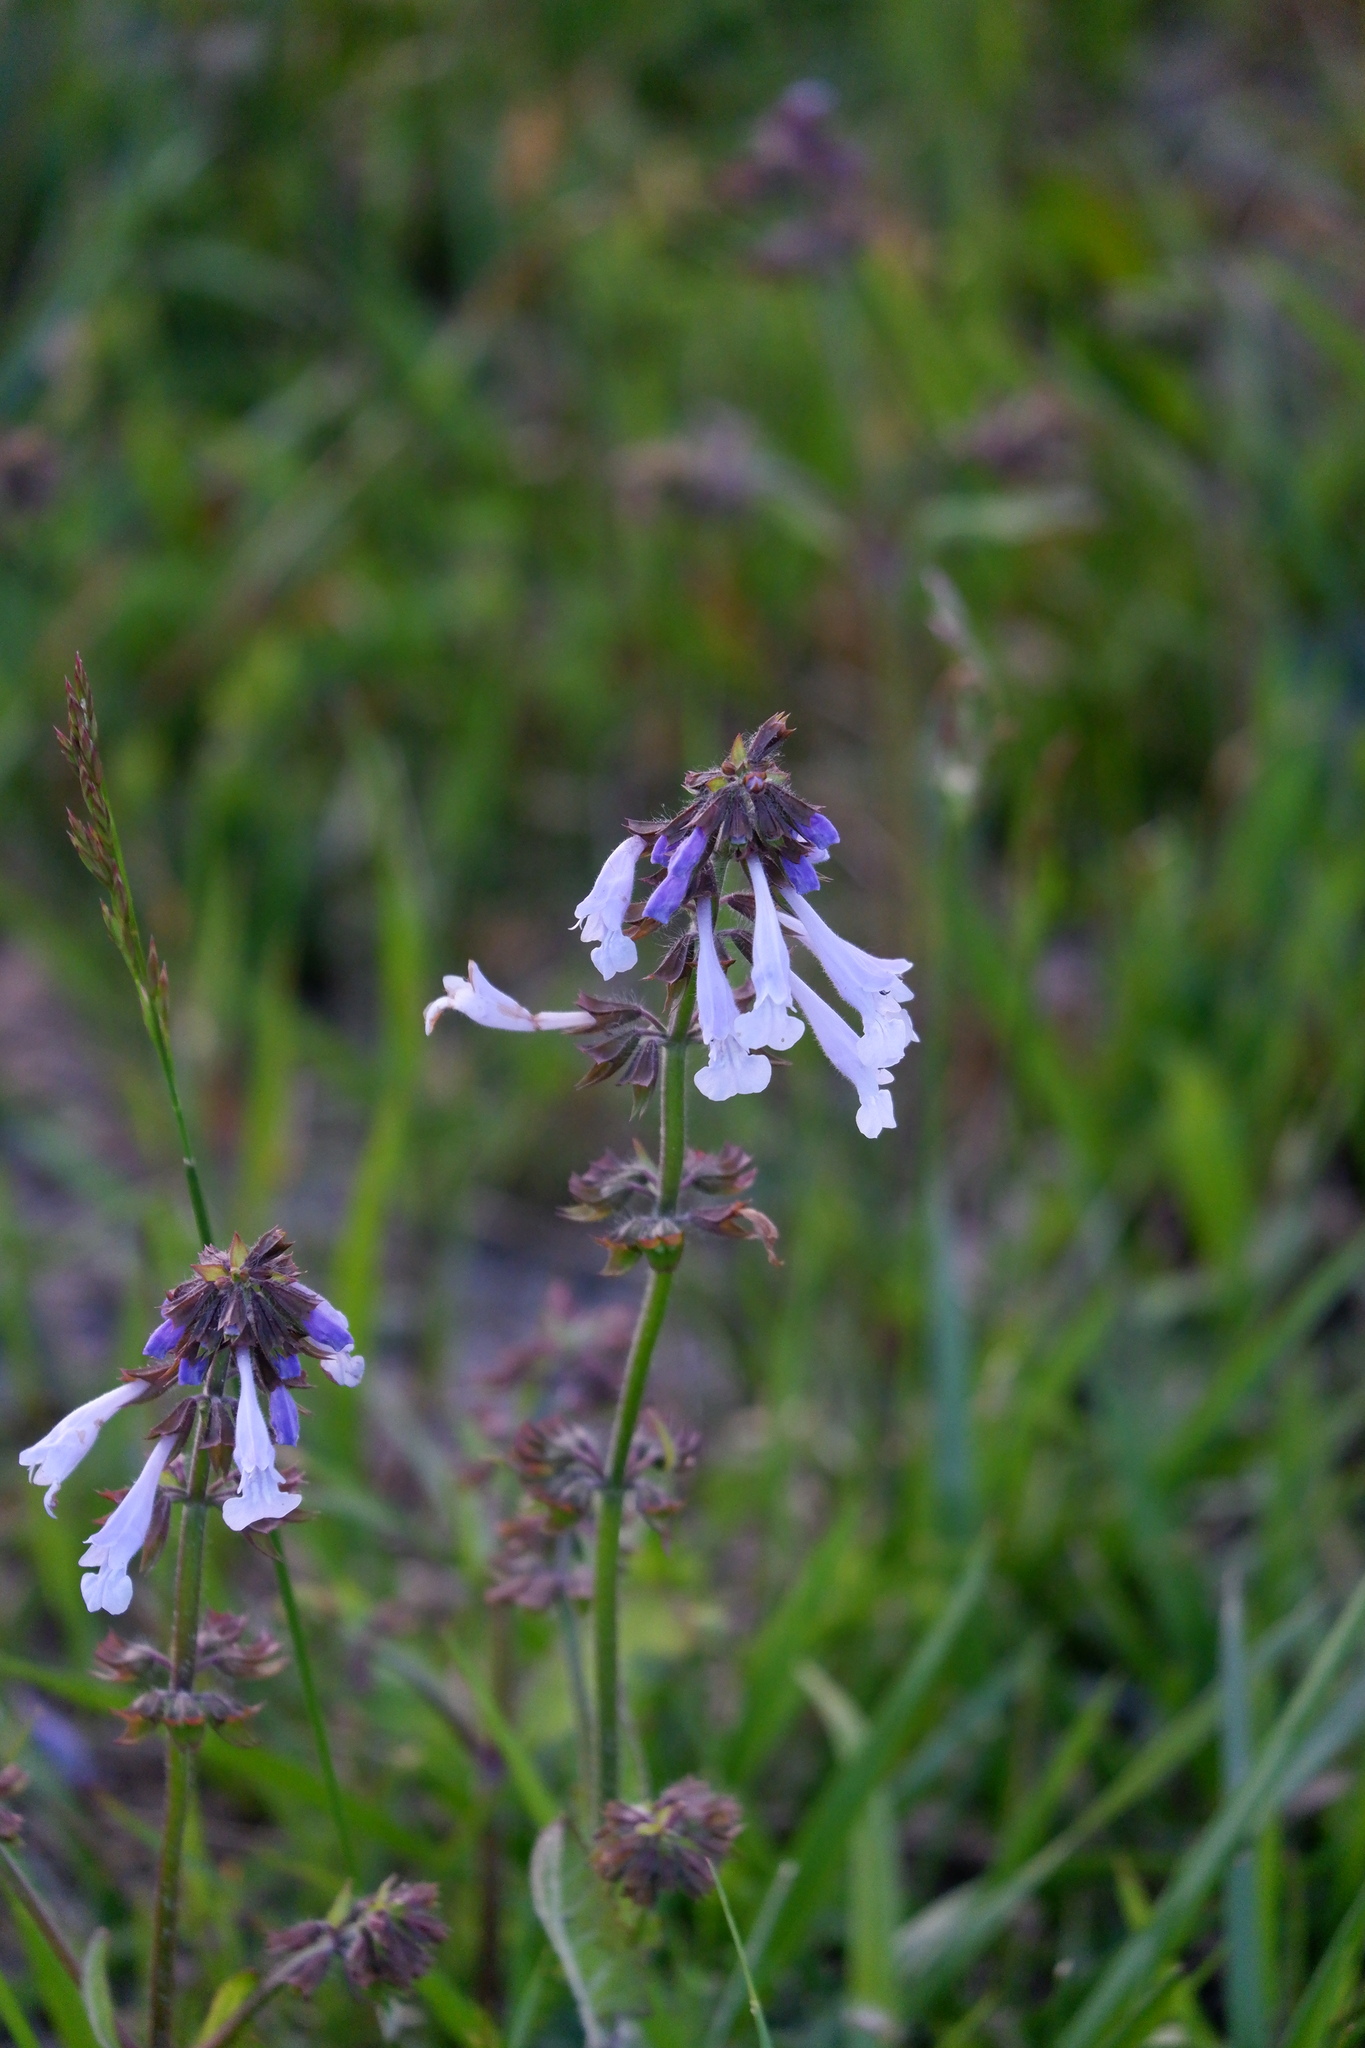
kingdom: Plantae
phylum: Tracheophyta
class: Magnoliopsida
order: Lamiales
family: Lamiaceae
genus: Salvia
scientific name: Salvia lyrata
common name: Cancerweed
